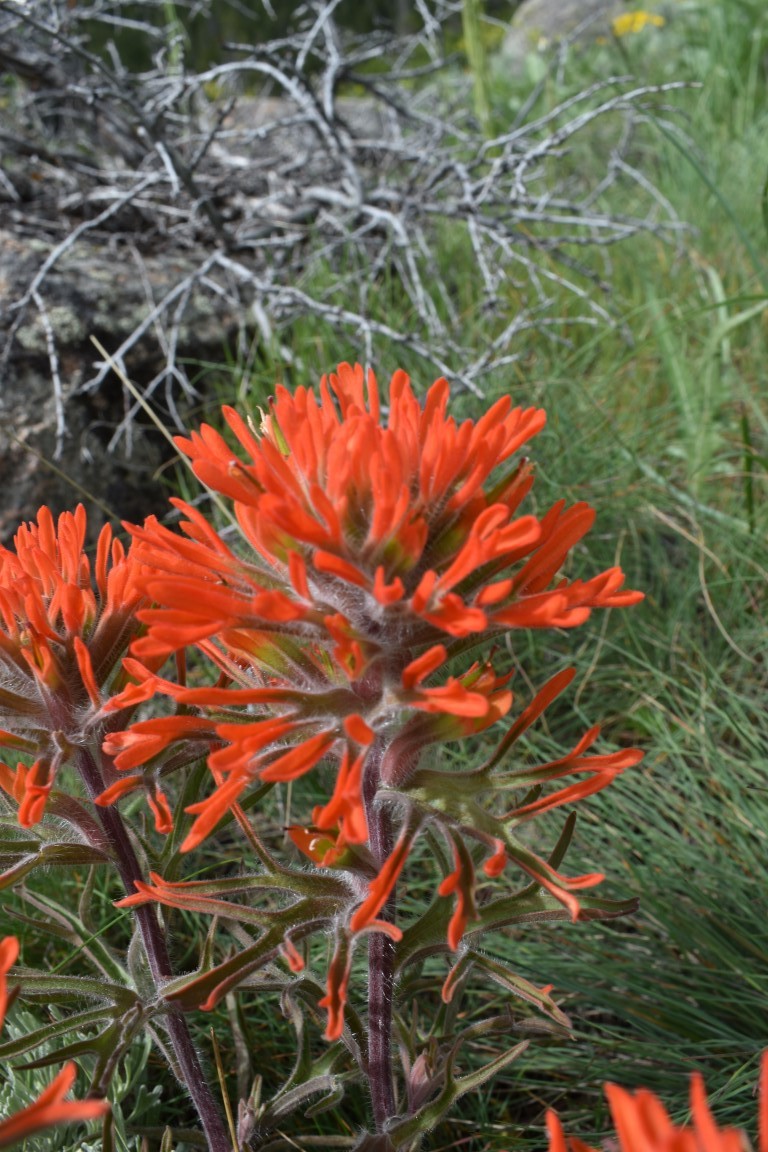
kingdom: Plantae
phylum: Tracheophyta
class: Magnoliopsida
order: Lamiales
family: Orobanchaceae
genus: Castilleja
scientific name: Castilleja chromosa
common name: Desert paintbrush
